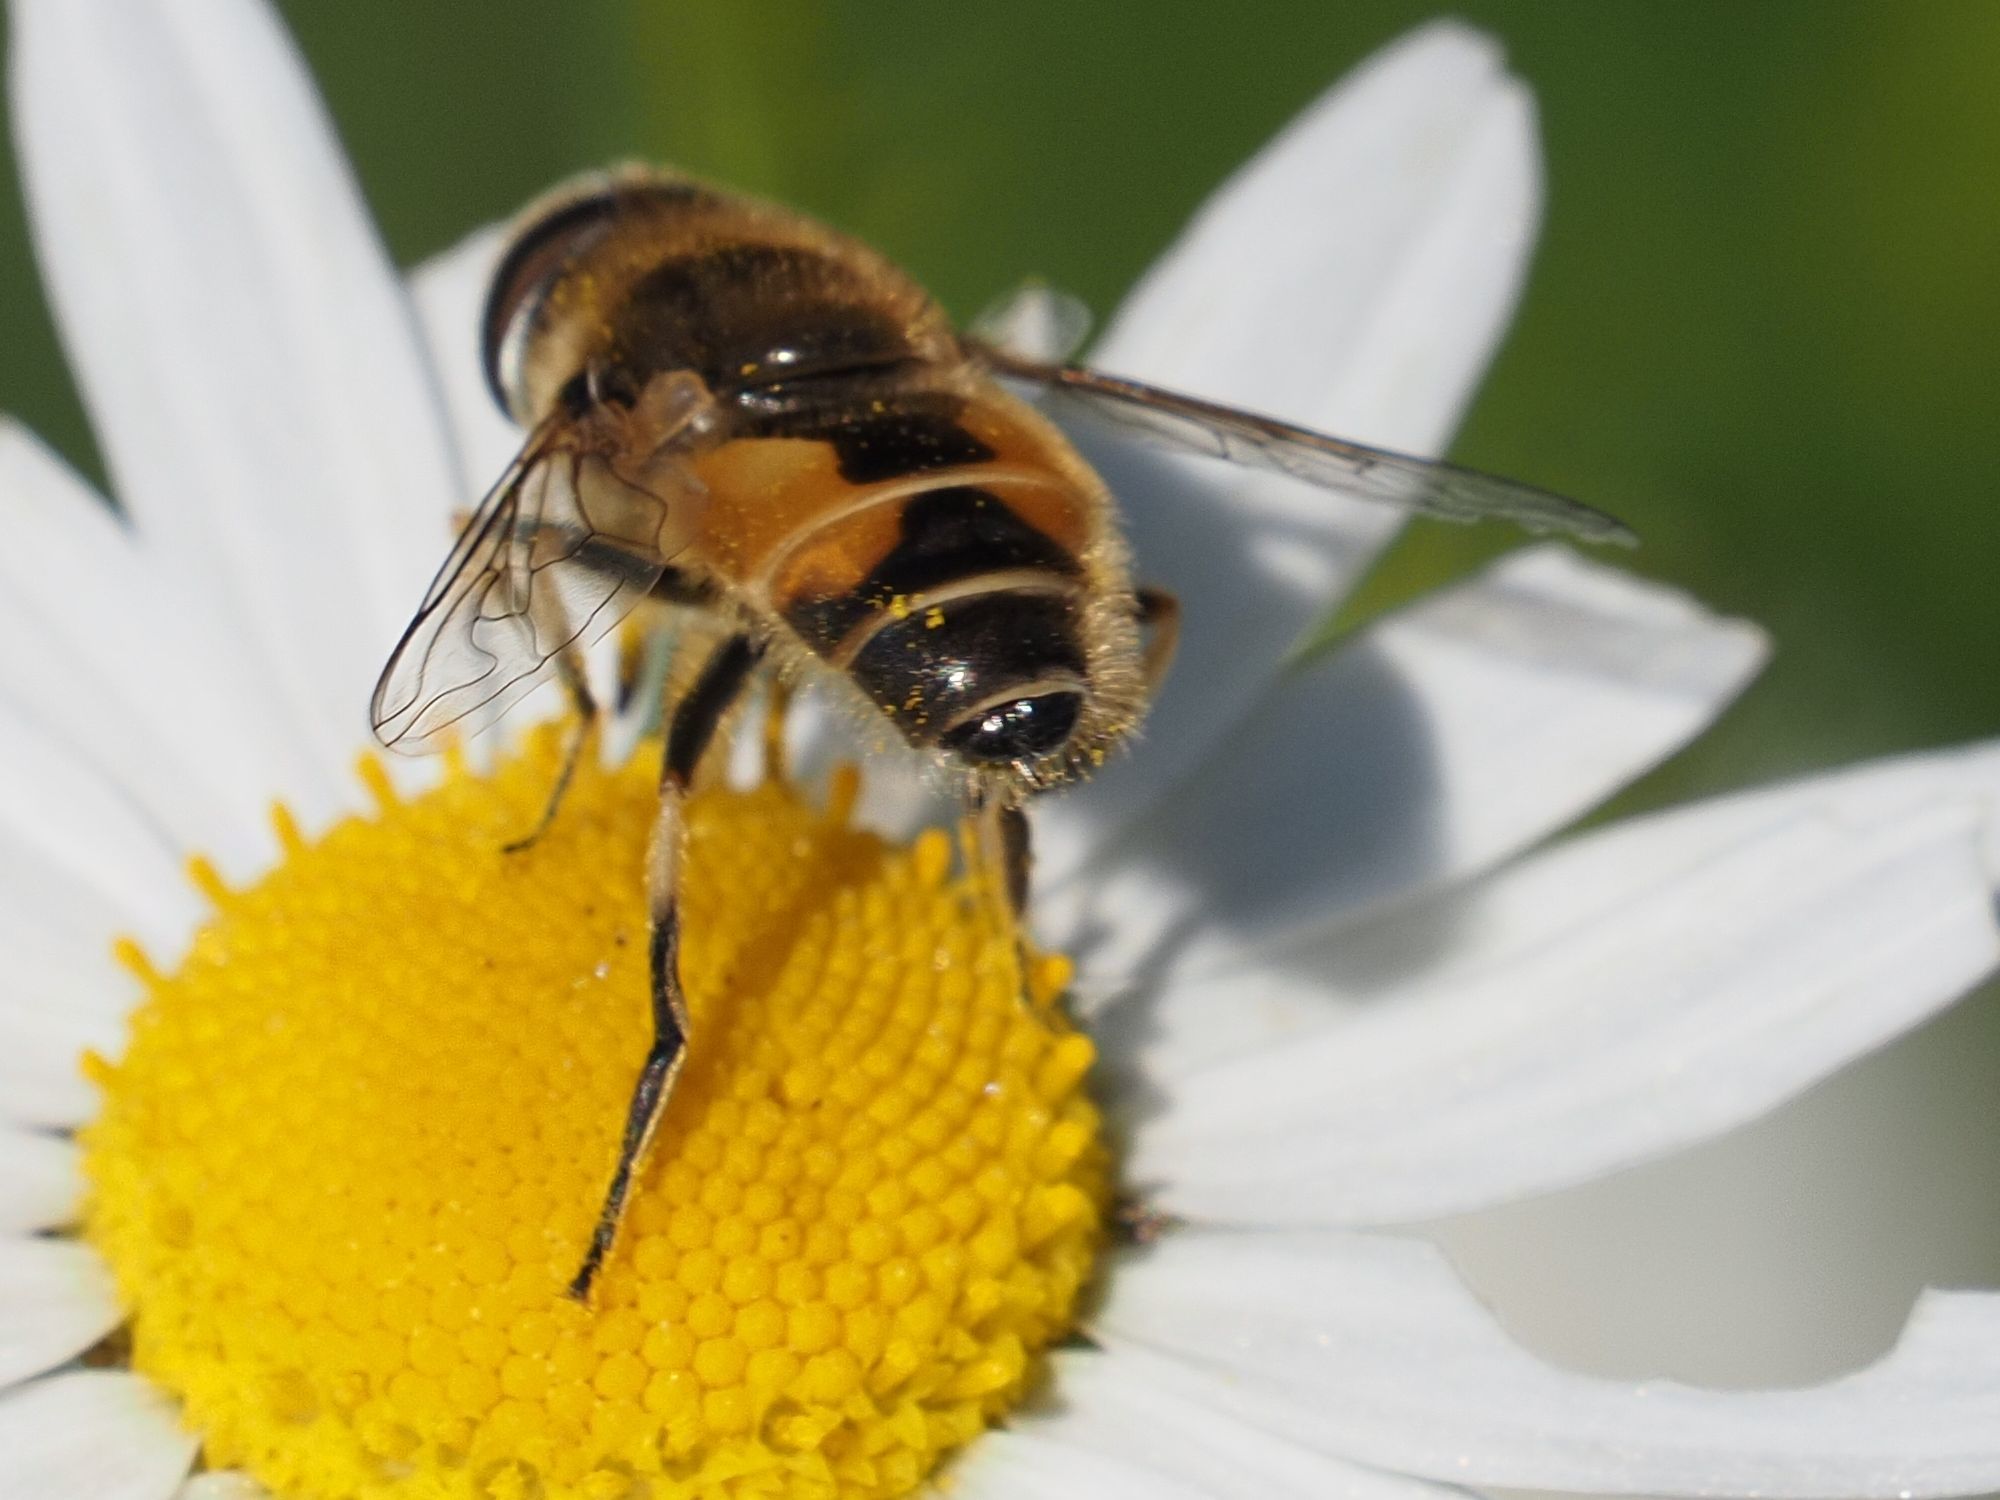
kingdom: Animalia
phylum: Arthropoda
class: Insecta
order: Diptera
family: Syrphidae
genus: Eristalis
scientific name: Eristalis arbustorum
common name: Hover fly
